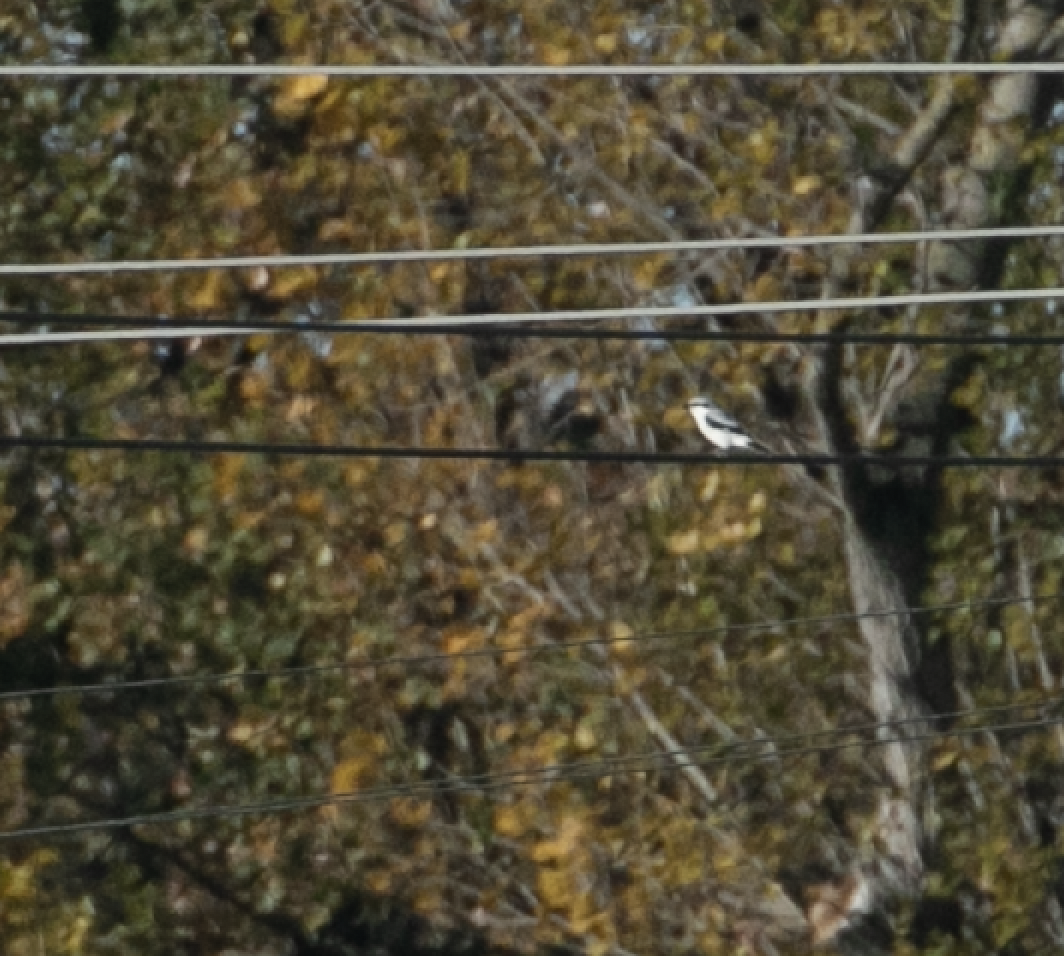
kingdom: Animalia
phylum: Chordata
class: Aves
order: Passeriformes
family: Laniidae
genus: Lanius
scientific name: Lanius excubitor
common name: Great grey shrike
